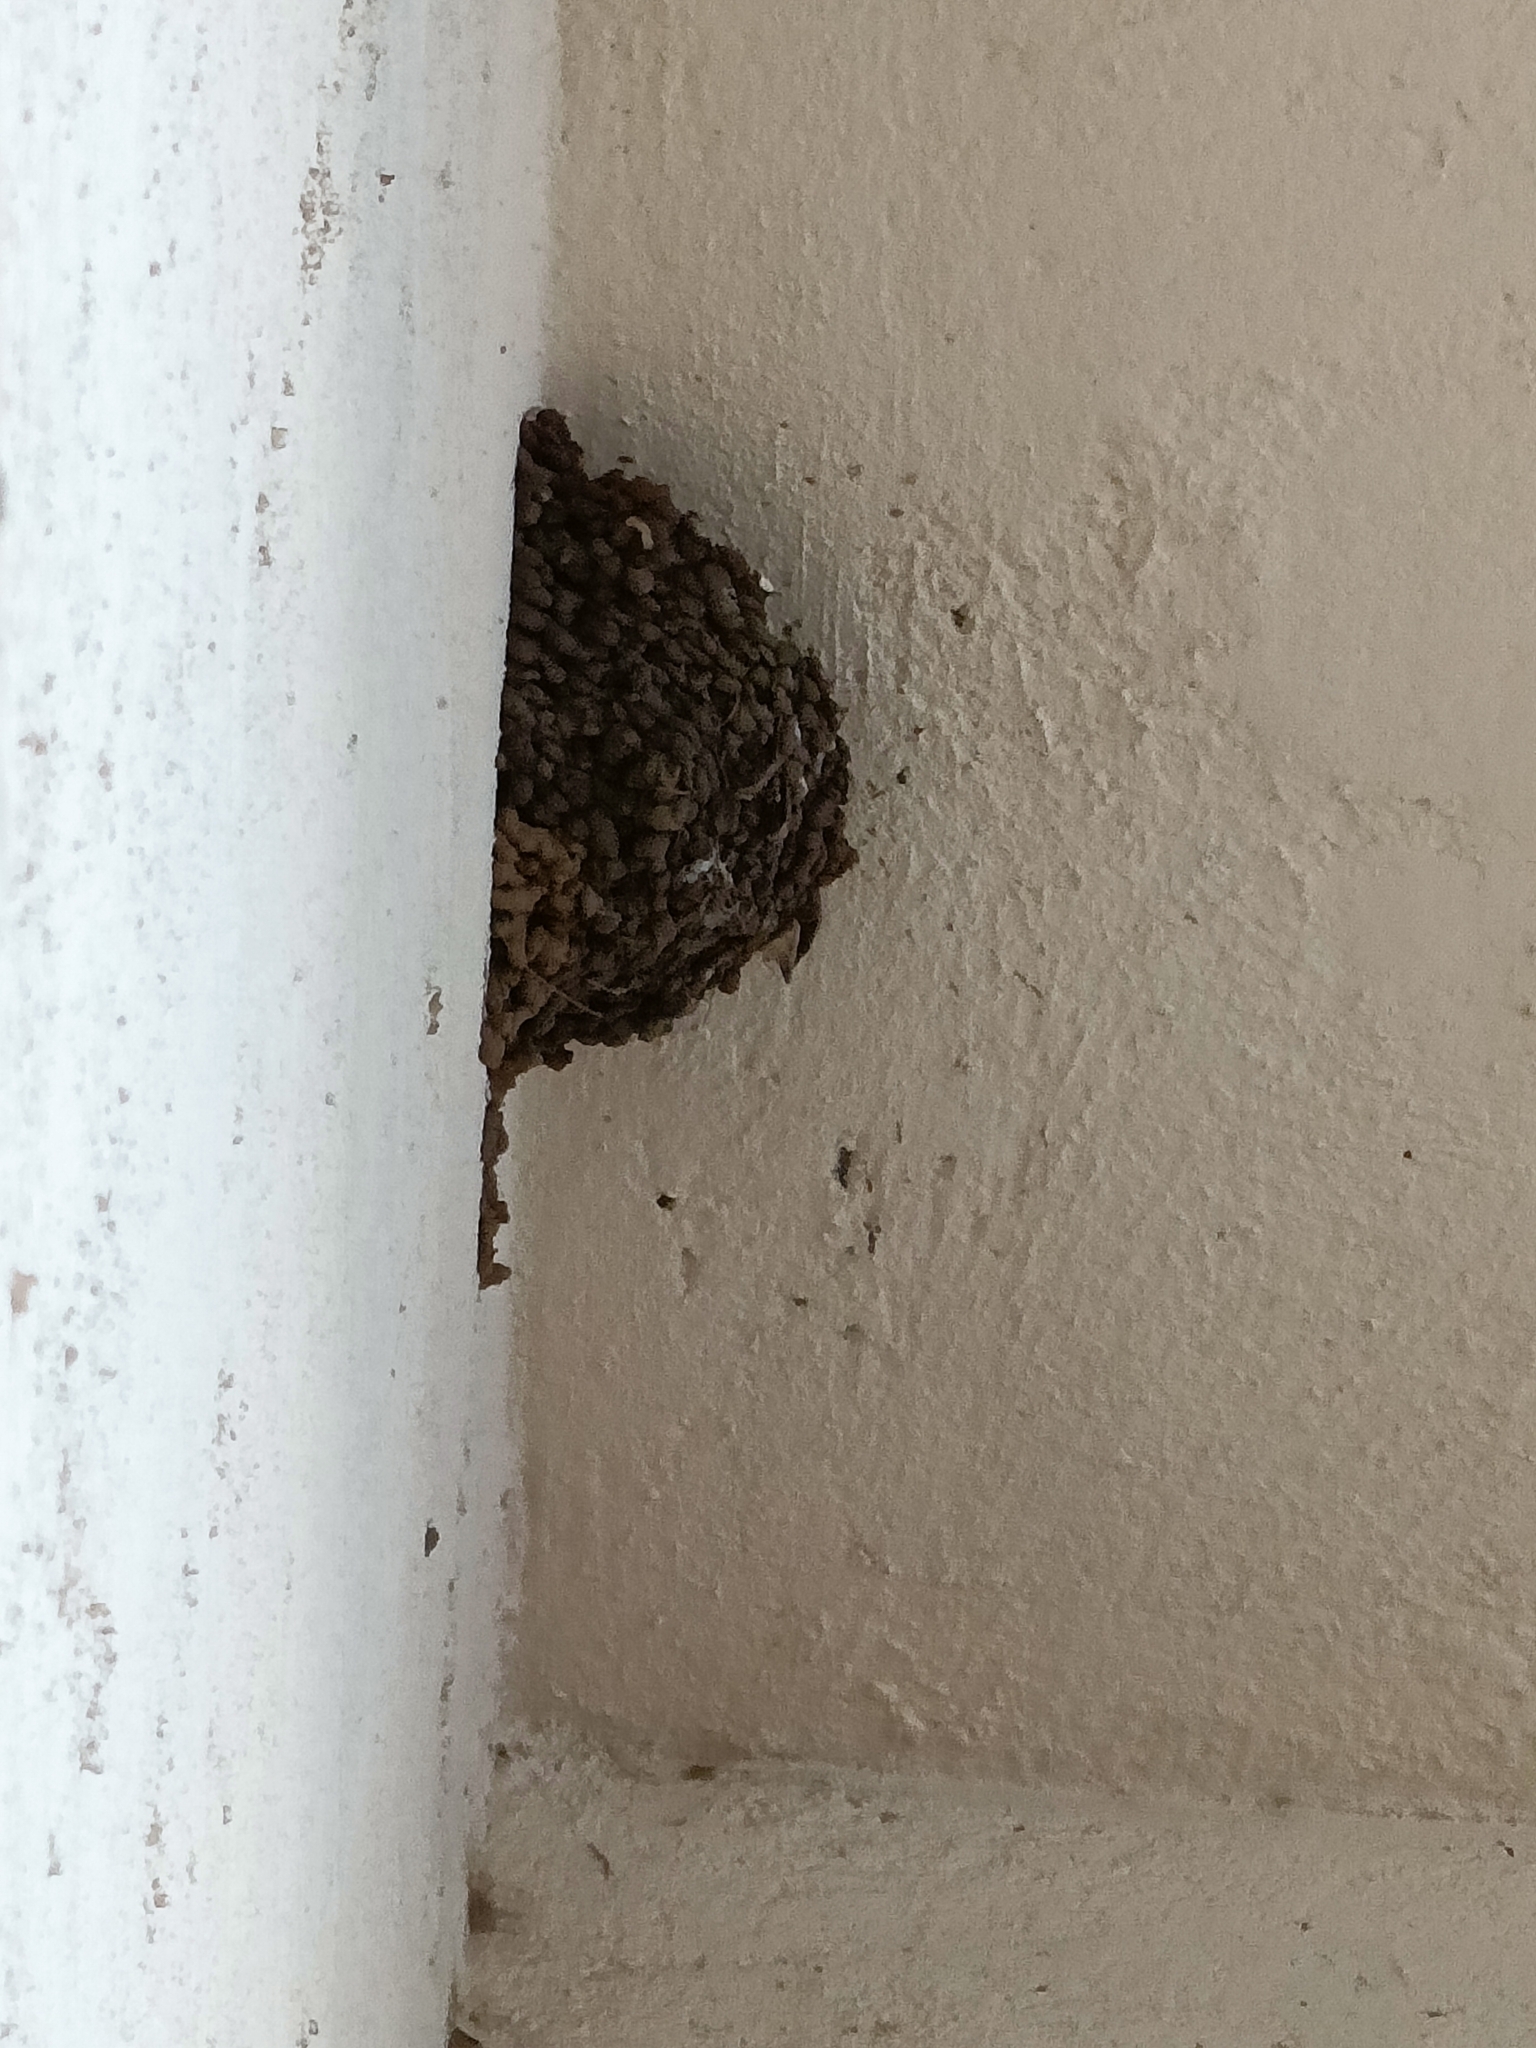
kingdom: Animalia
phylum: Chordata
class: Aves
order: Passeriformes
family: Hirundinidae
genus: Hirundo
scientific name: Hirundo smithii
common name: Wire-tailed swallow
